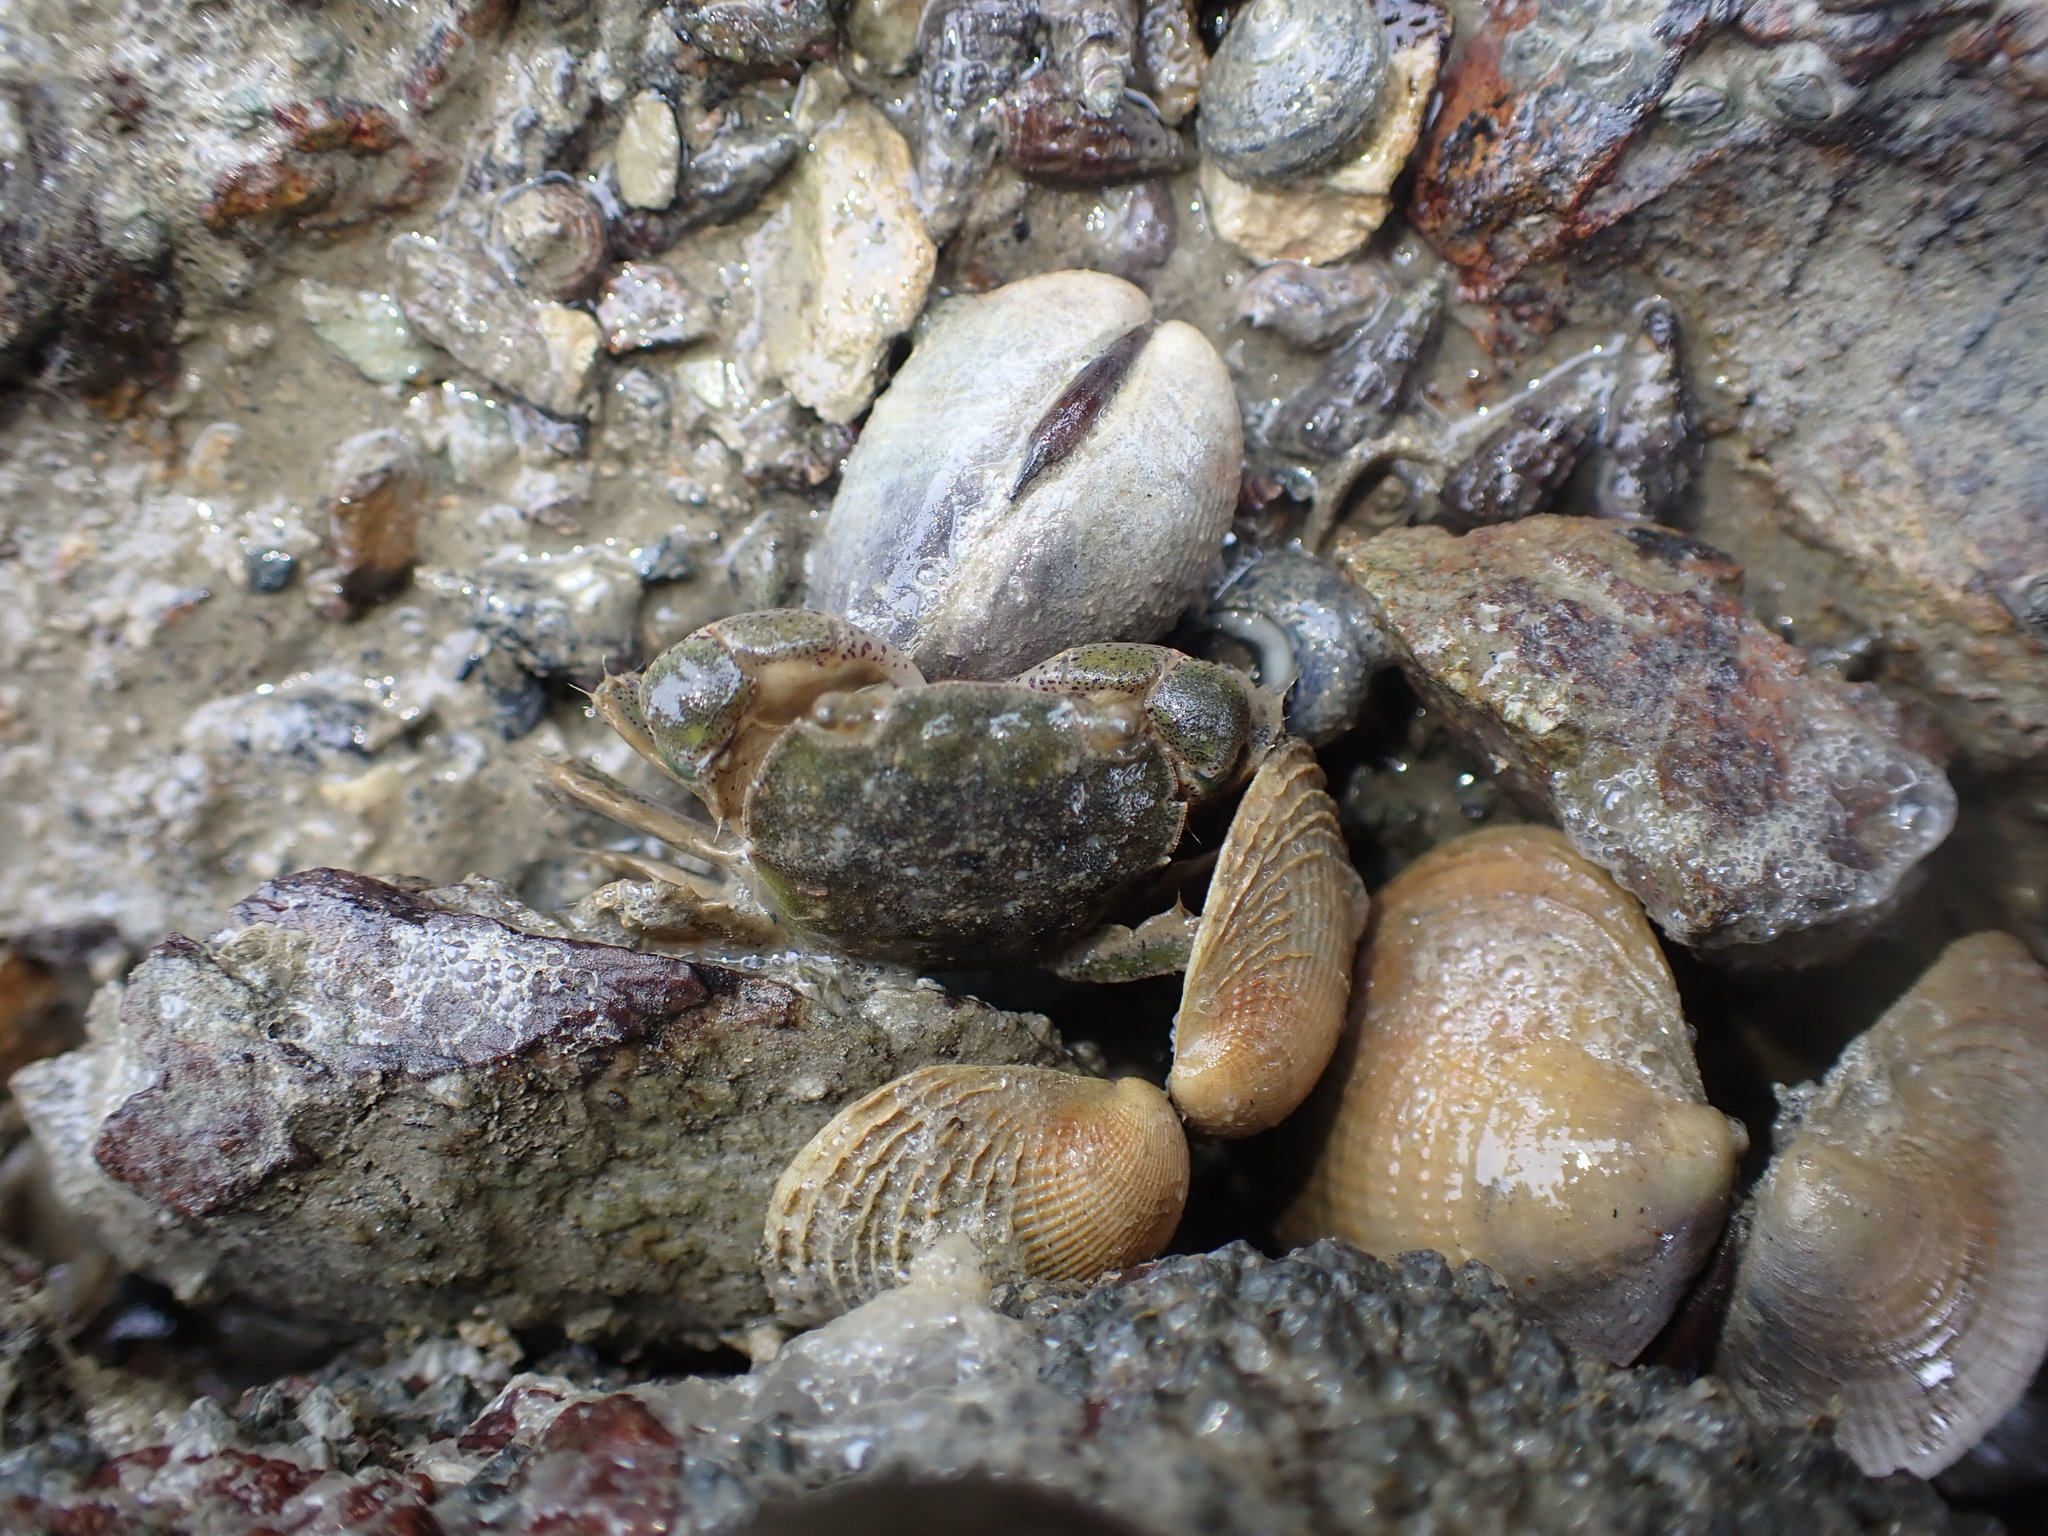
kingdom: Animalia
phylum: Arthropoda
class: Malacostraca
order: Decapoda
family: Varunidae
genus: Hemigrapsus
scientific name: Hemigrapsus crenulatus
